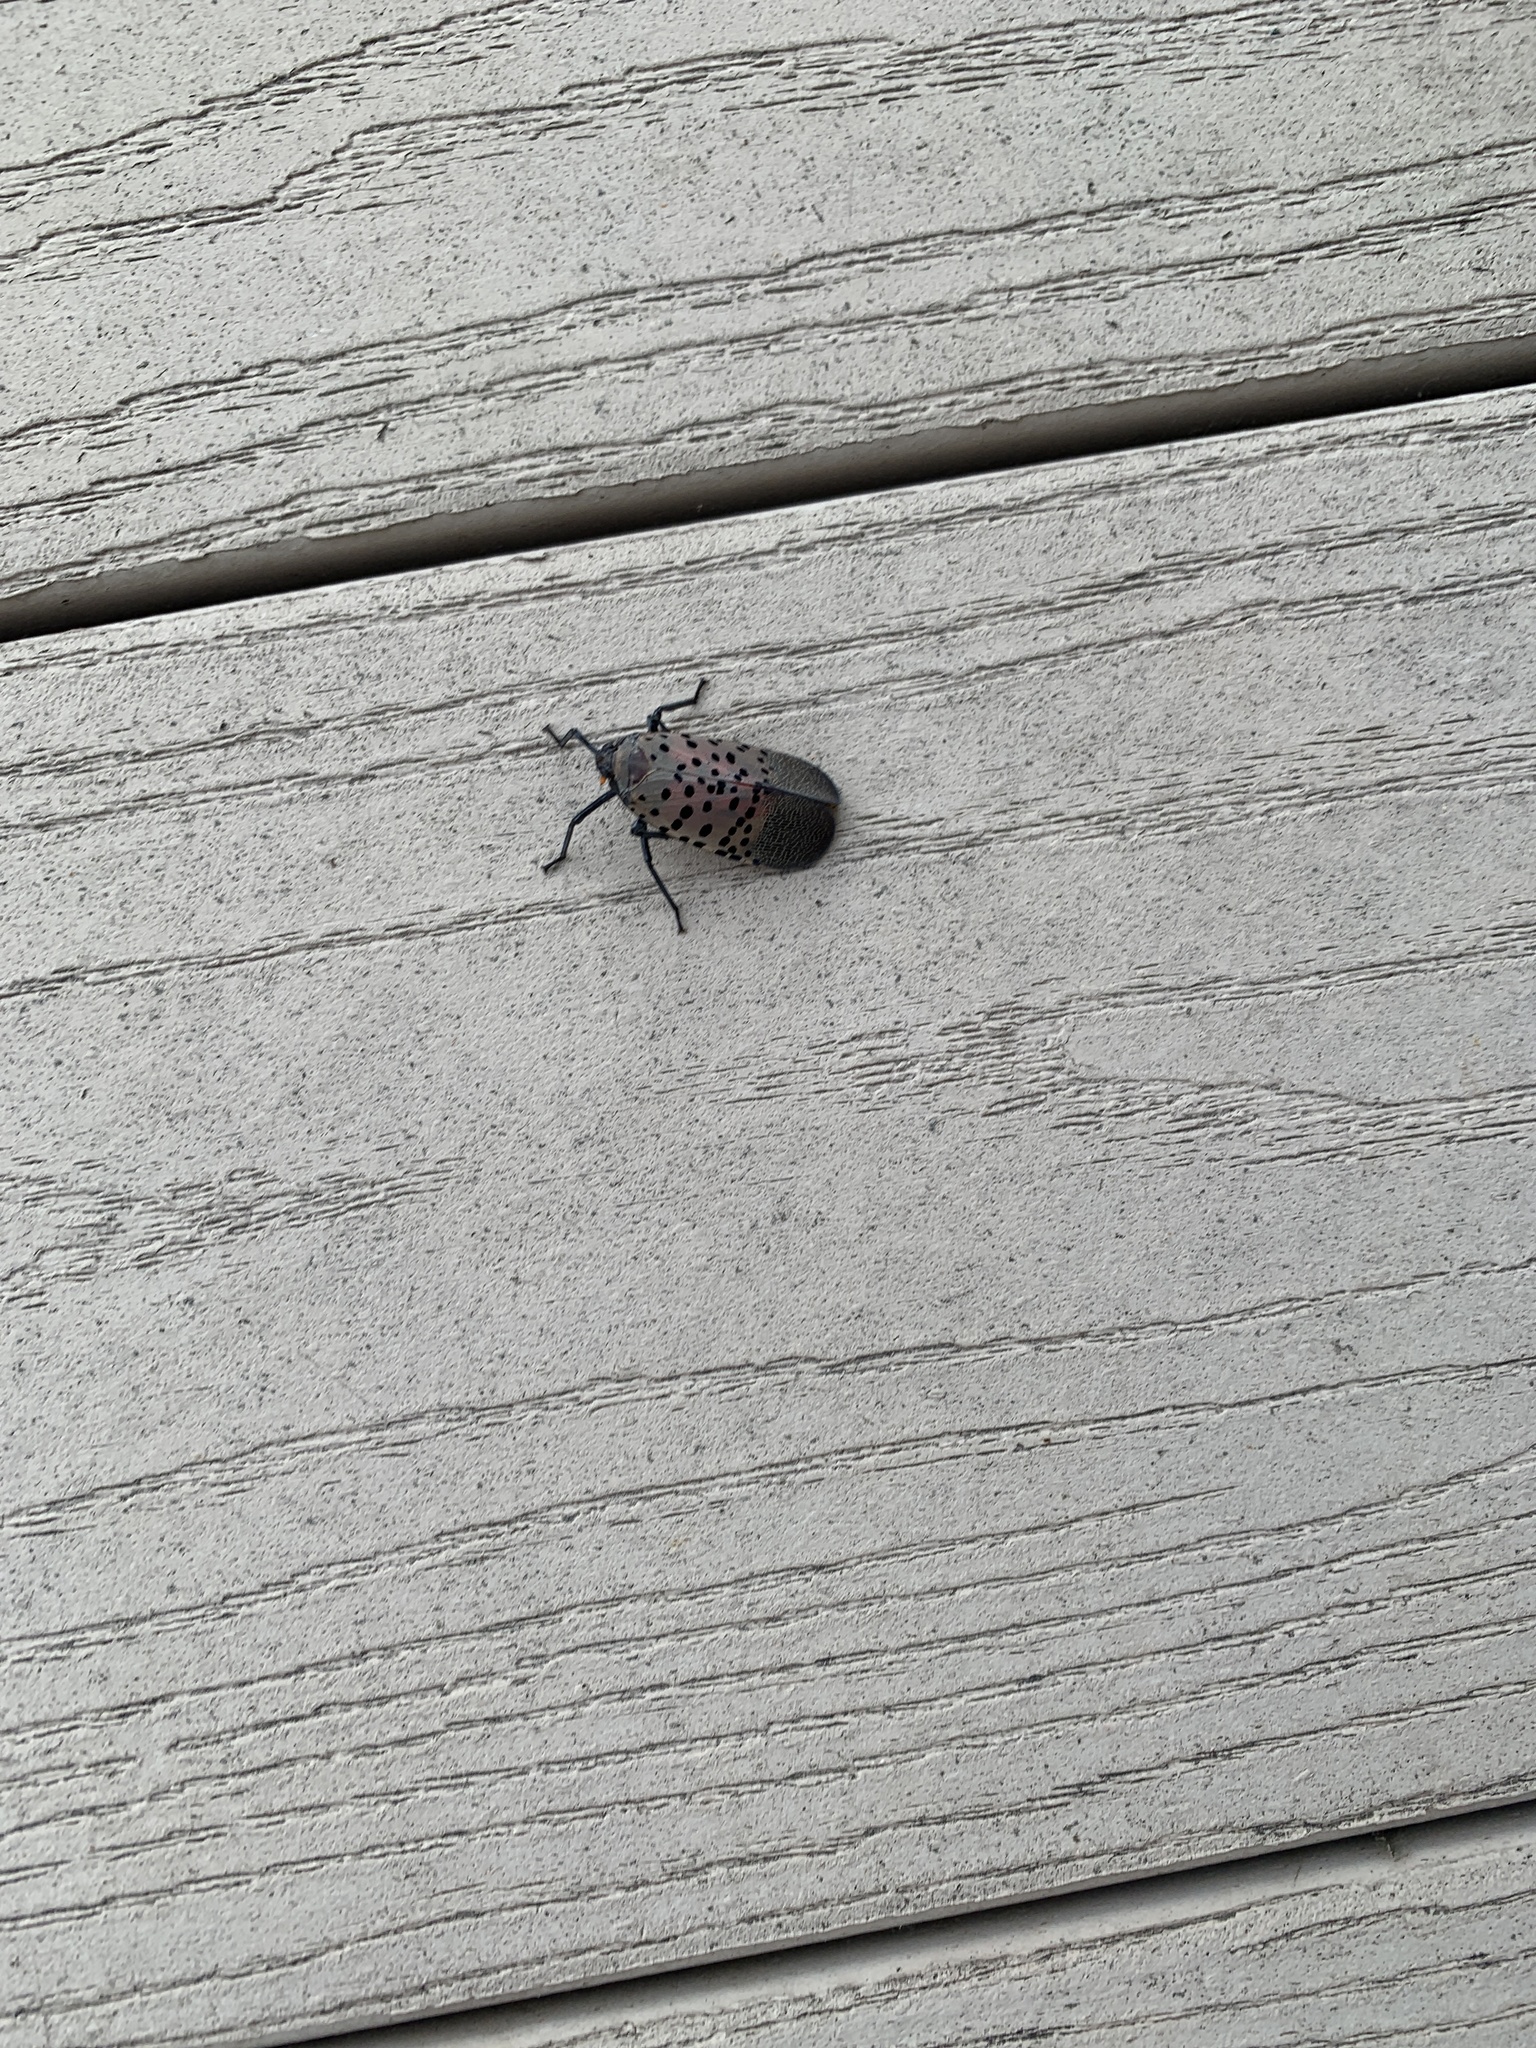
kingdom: Animalia
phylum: Arthropoda
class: Insecta
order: Hemiptera
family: Fulgoridae
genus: Lycorma
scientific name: Lycorma delicatula
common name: Spotted lanternfly
